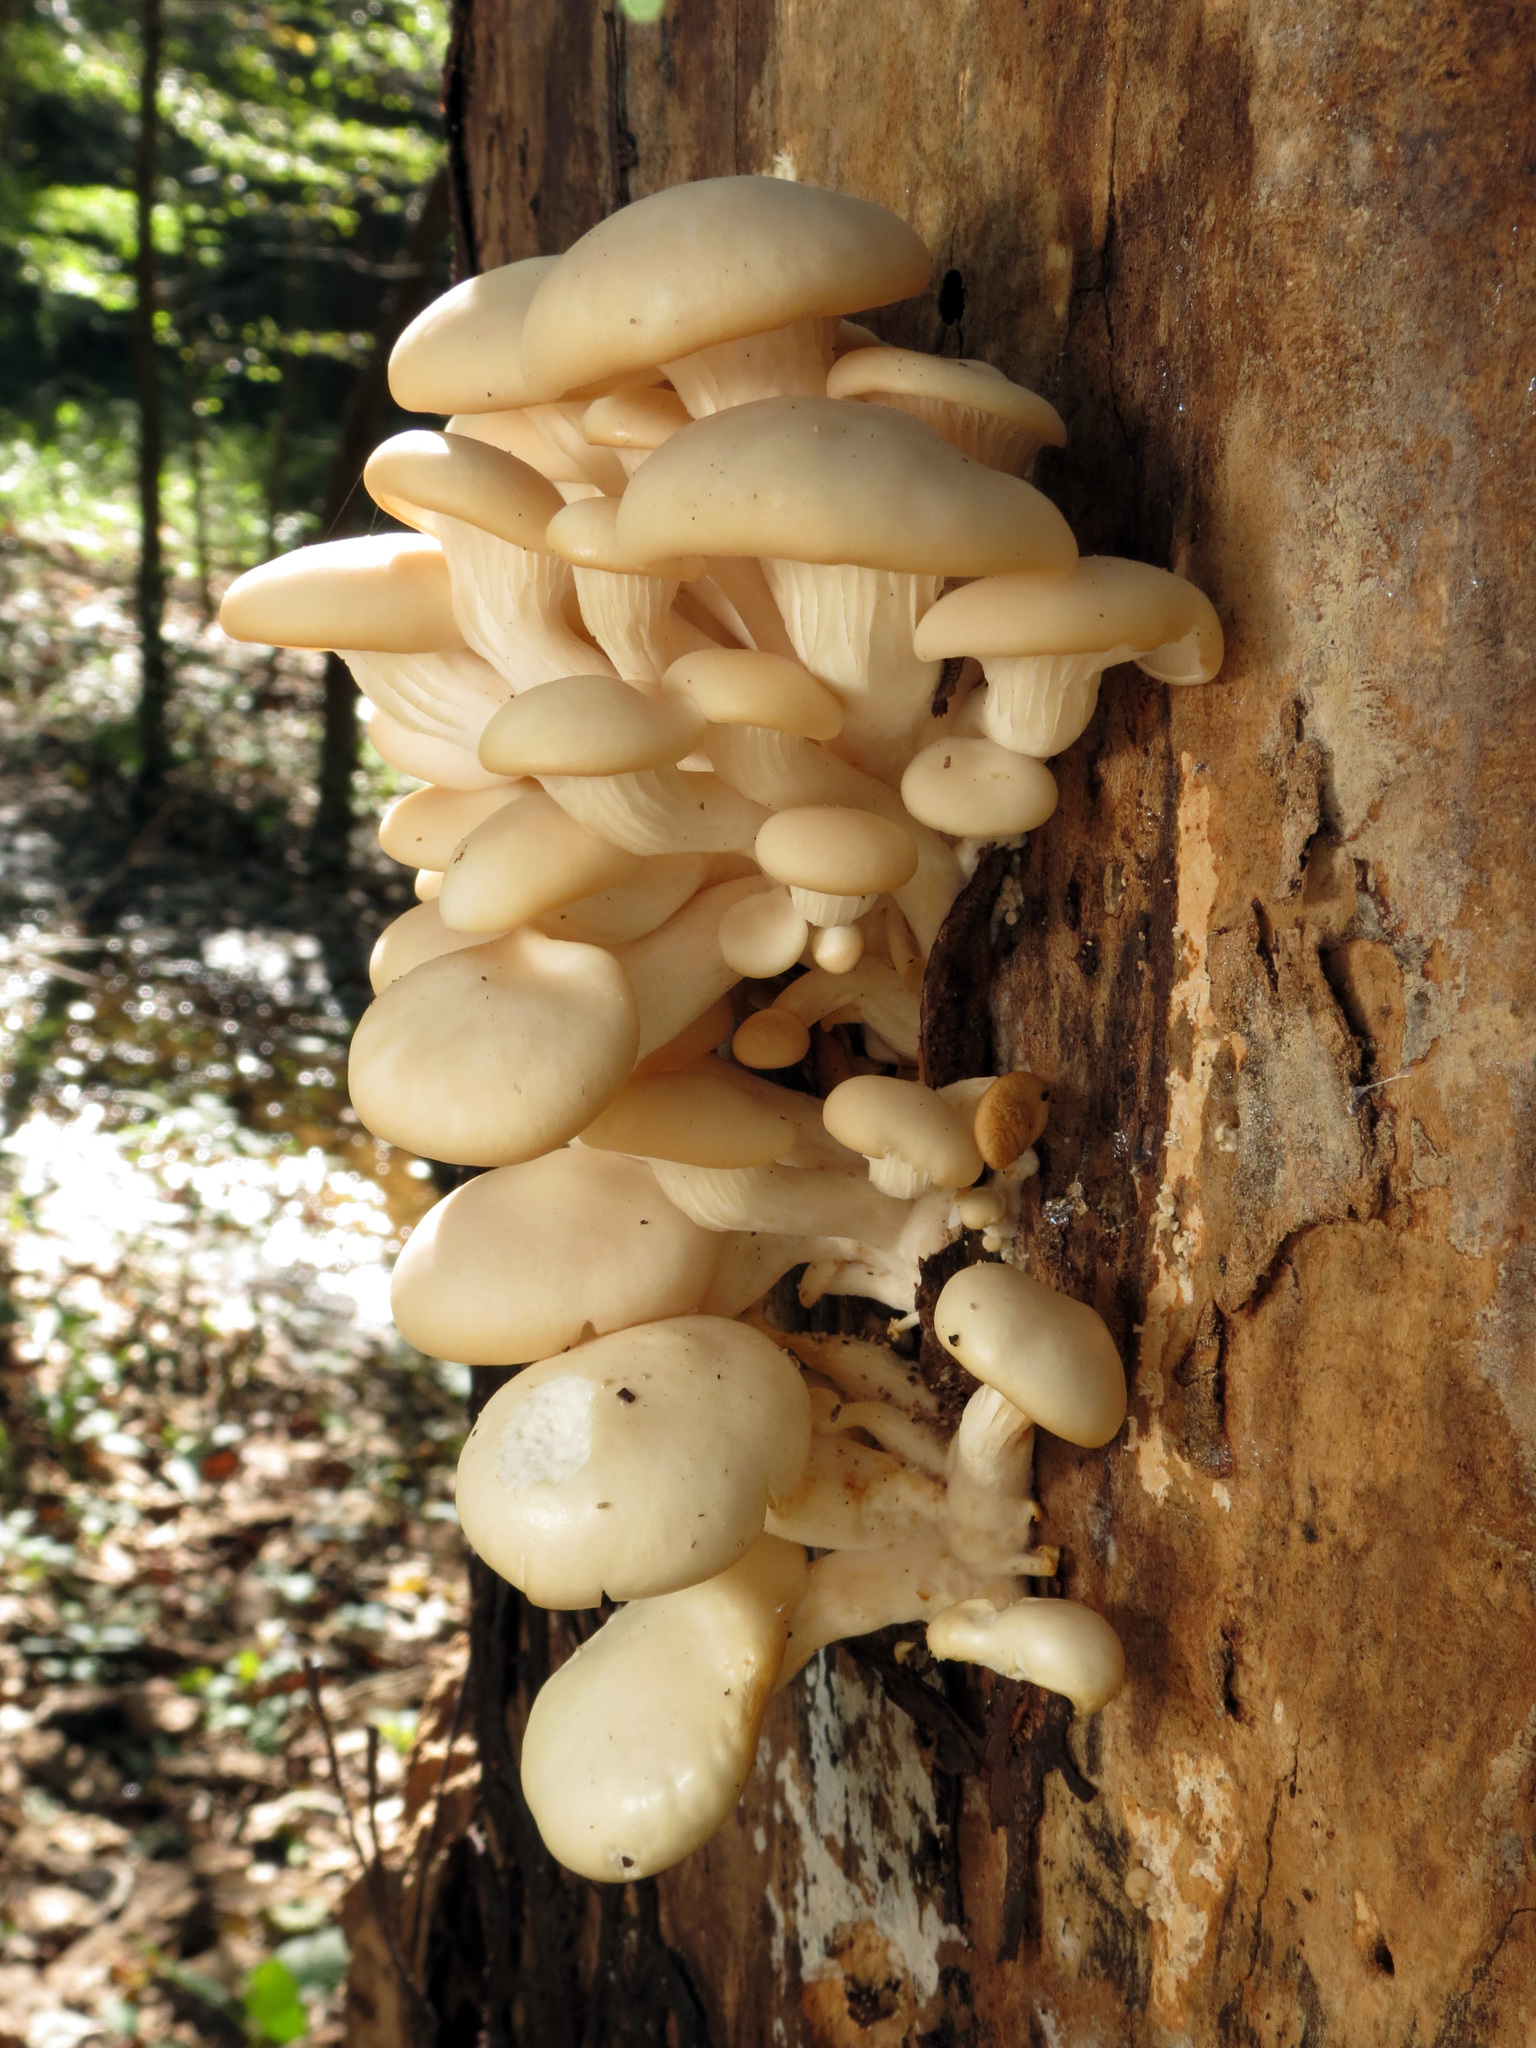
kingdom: Fungi
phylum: Basidiomycota
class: Agaricomycetes
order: Agaricales
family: Pleurotaceae
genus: Pleurotus
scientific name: Pleurotus ostreatus
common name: Oyster mushroom
